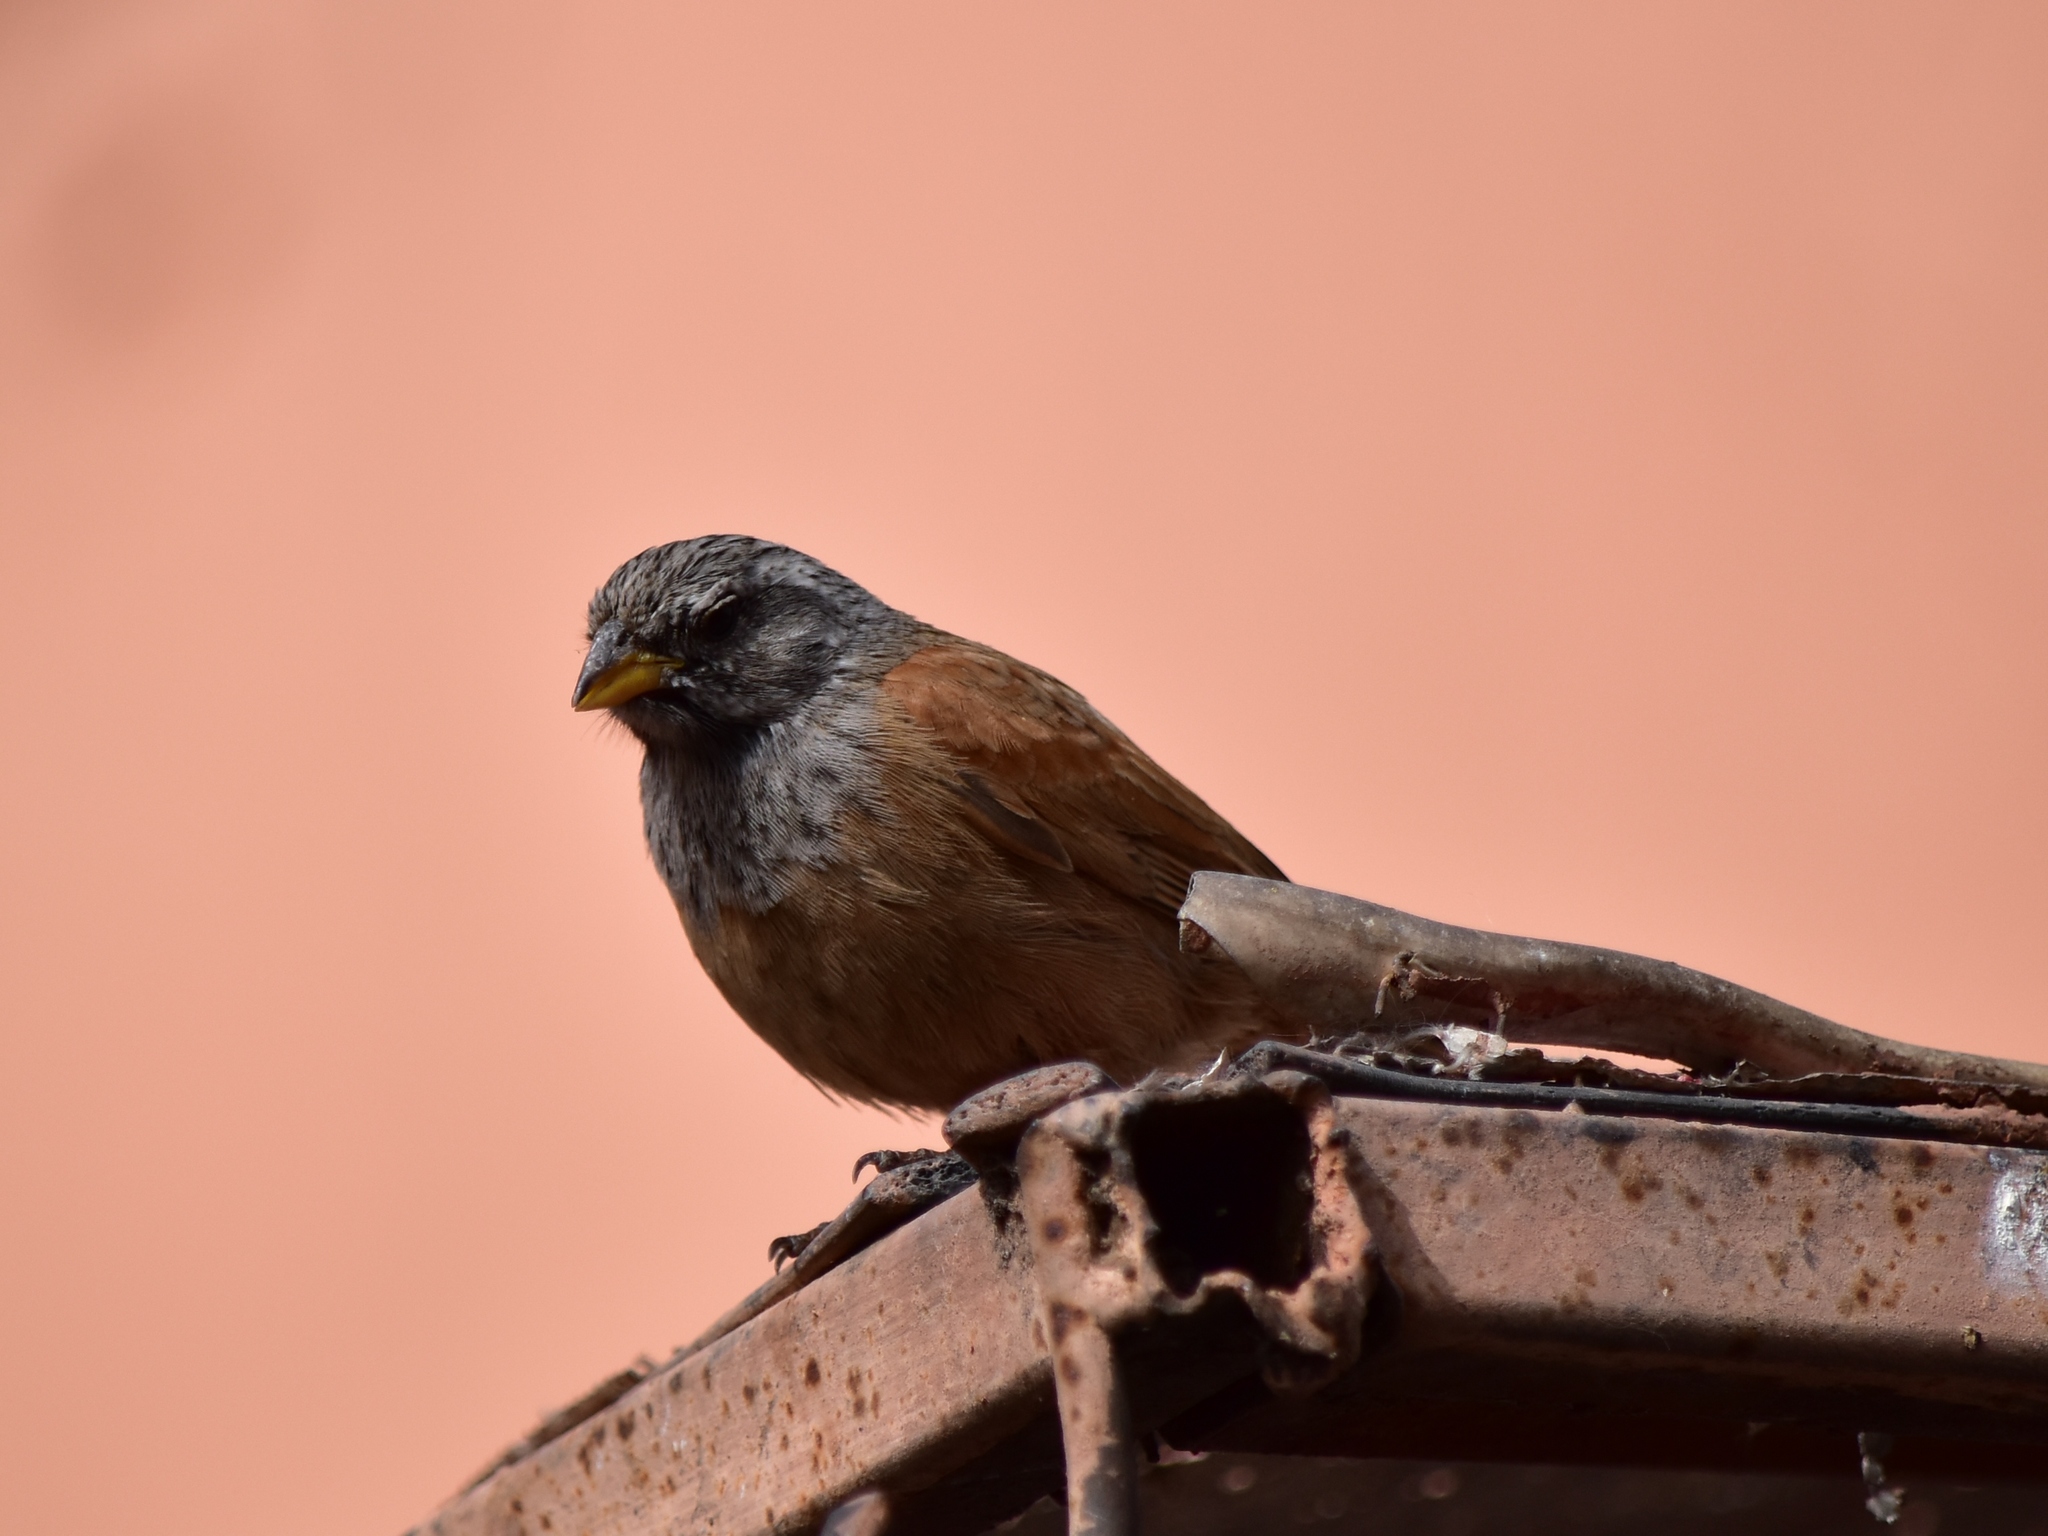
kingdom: Animalia
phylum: Chordata
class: Aves
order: Passeriformes
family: Emberizidae
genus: Emberiza
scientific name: Emberiza sahari
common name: House bunting
